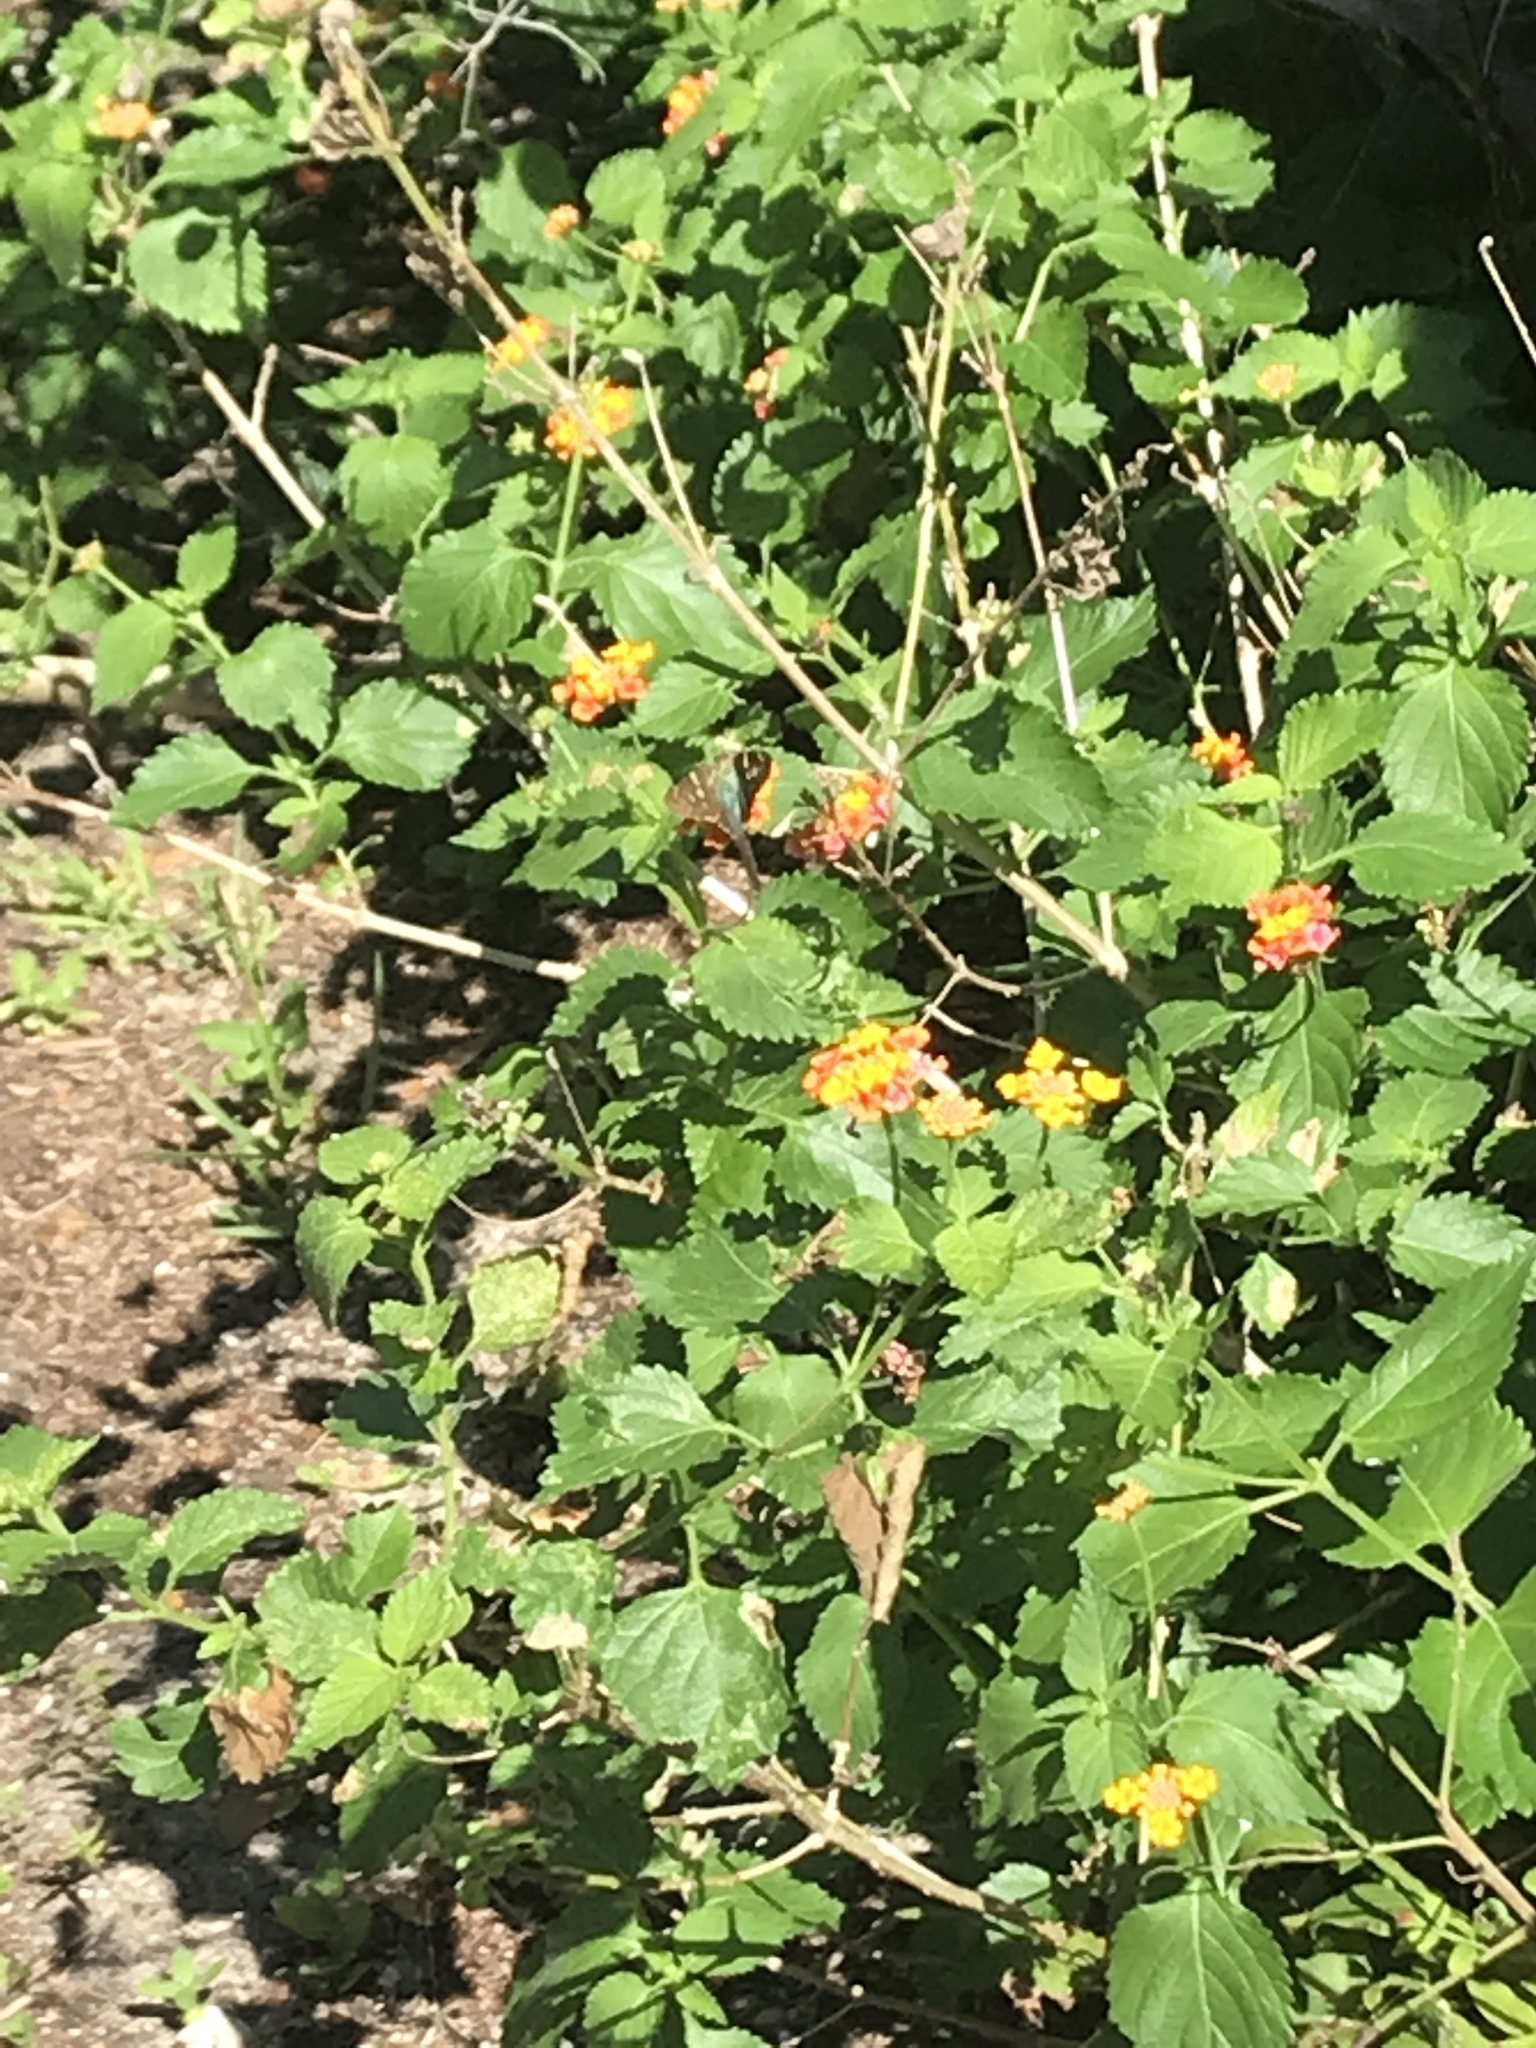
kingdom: Animalia
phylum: Arthropoda
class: Insecta
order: Lepidoptera
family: Hesperiidae
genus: Urbanus
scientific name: Urbanus proteus
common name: Long-tailed skipper
